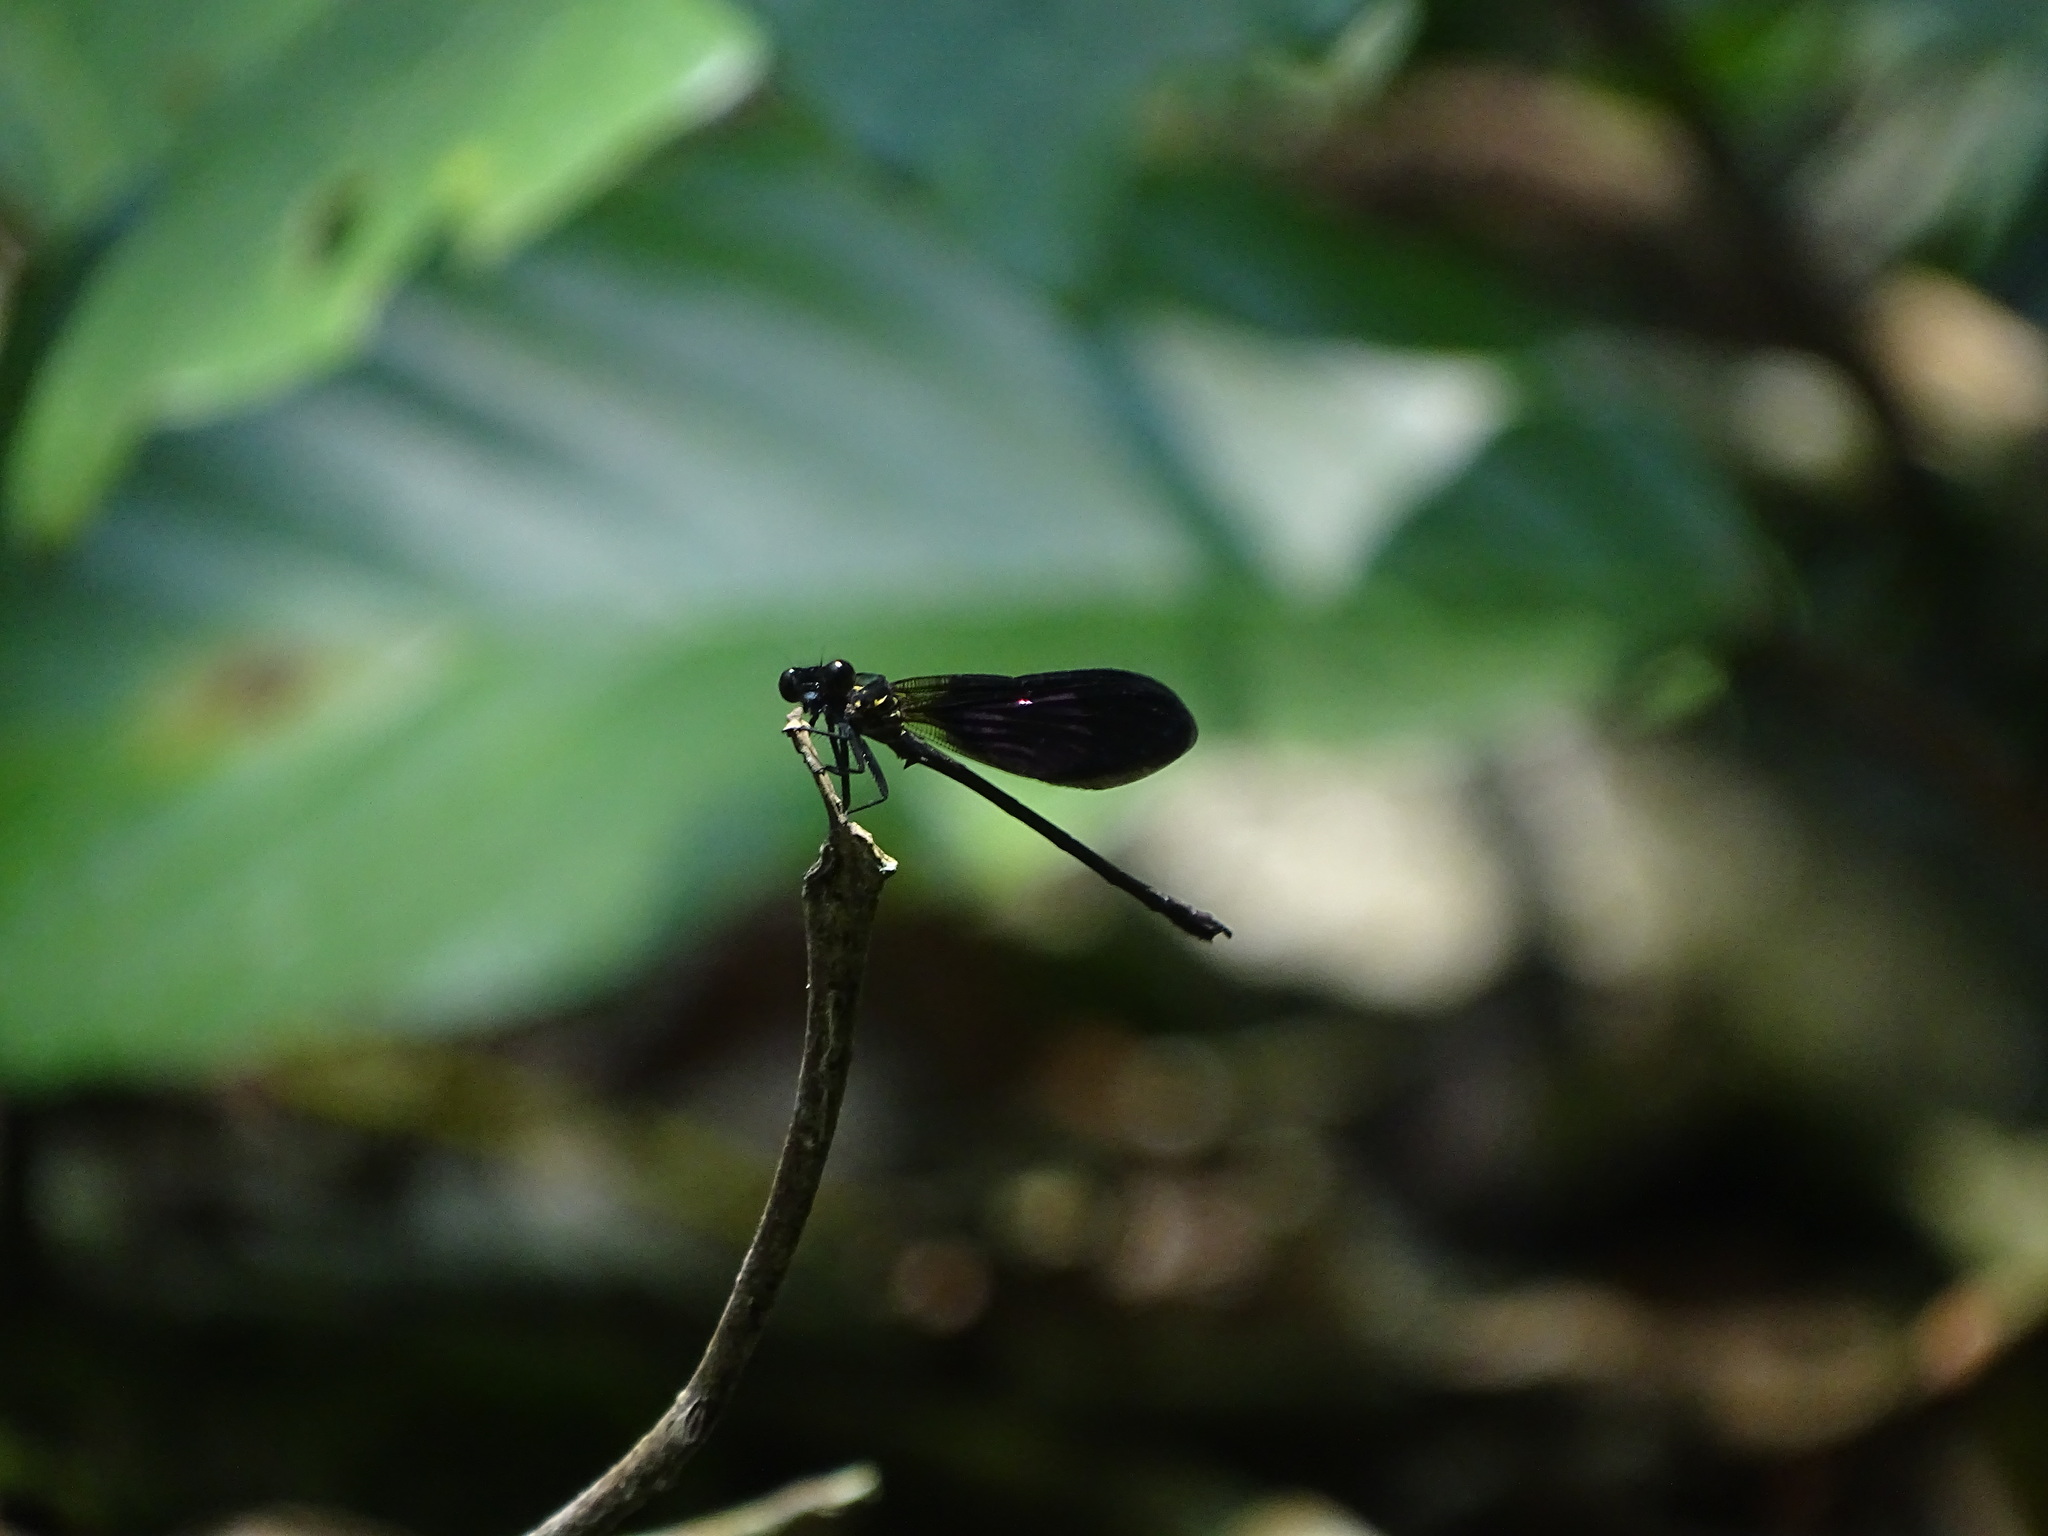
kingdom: Animalia
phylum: Arthropoda
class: Insecta
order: Odonata
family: Euphaeidae
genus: Euphaea
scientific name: Euphaea variegata
